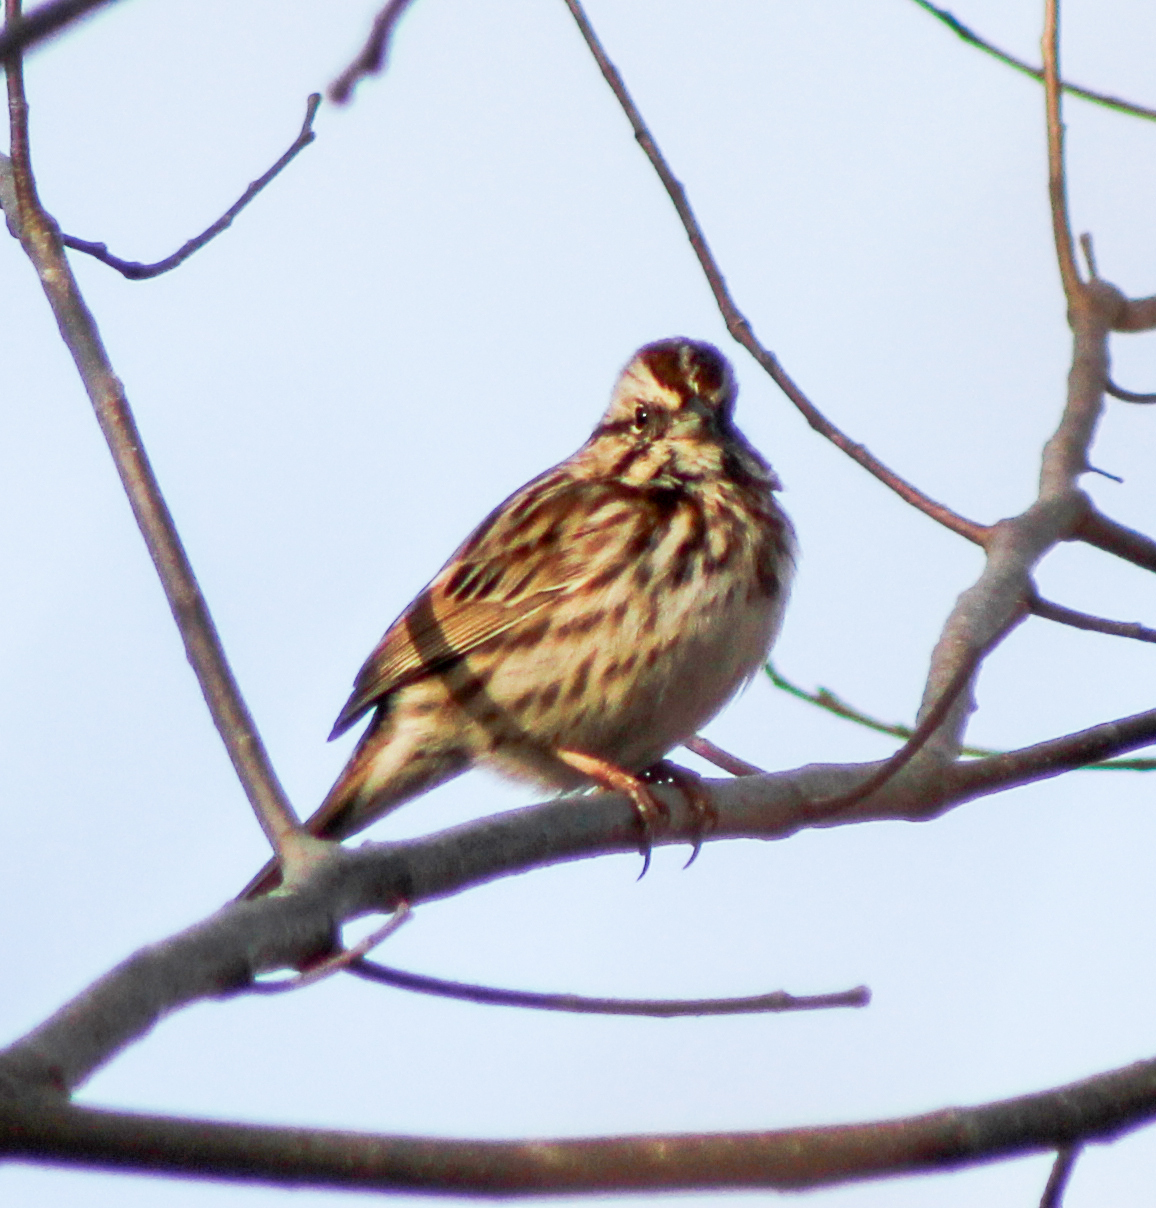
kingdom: Animalia
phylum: Chordata
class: Aves
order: Passeriformes
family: Passerellidae
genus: Melospiza
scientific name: Melospiza melodia
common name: Song sparrow
